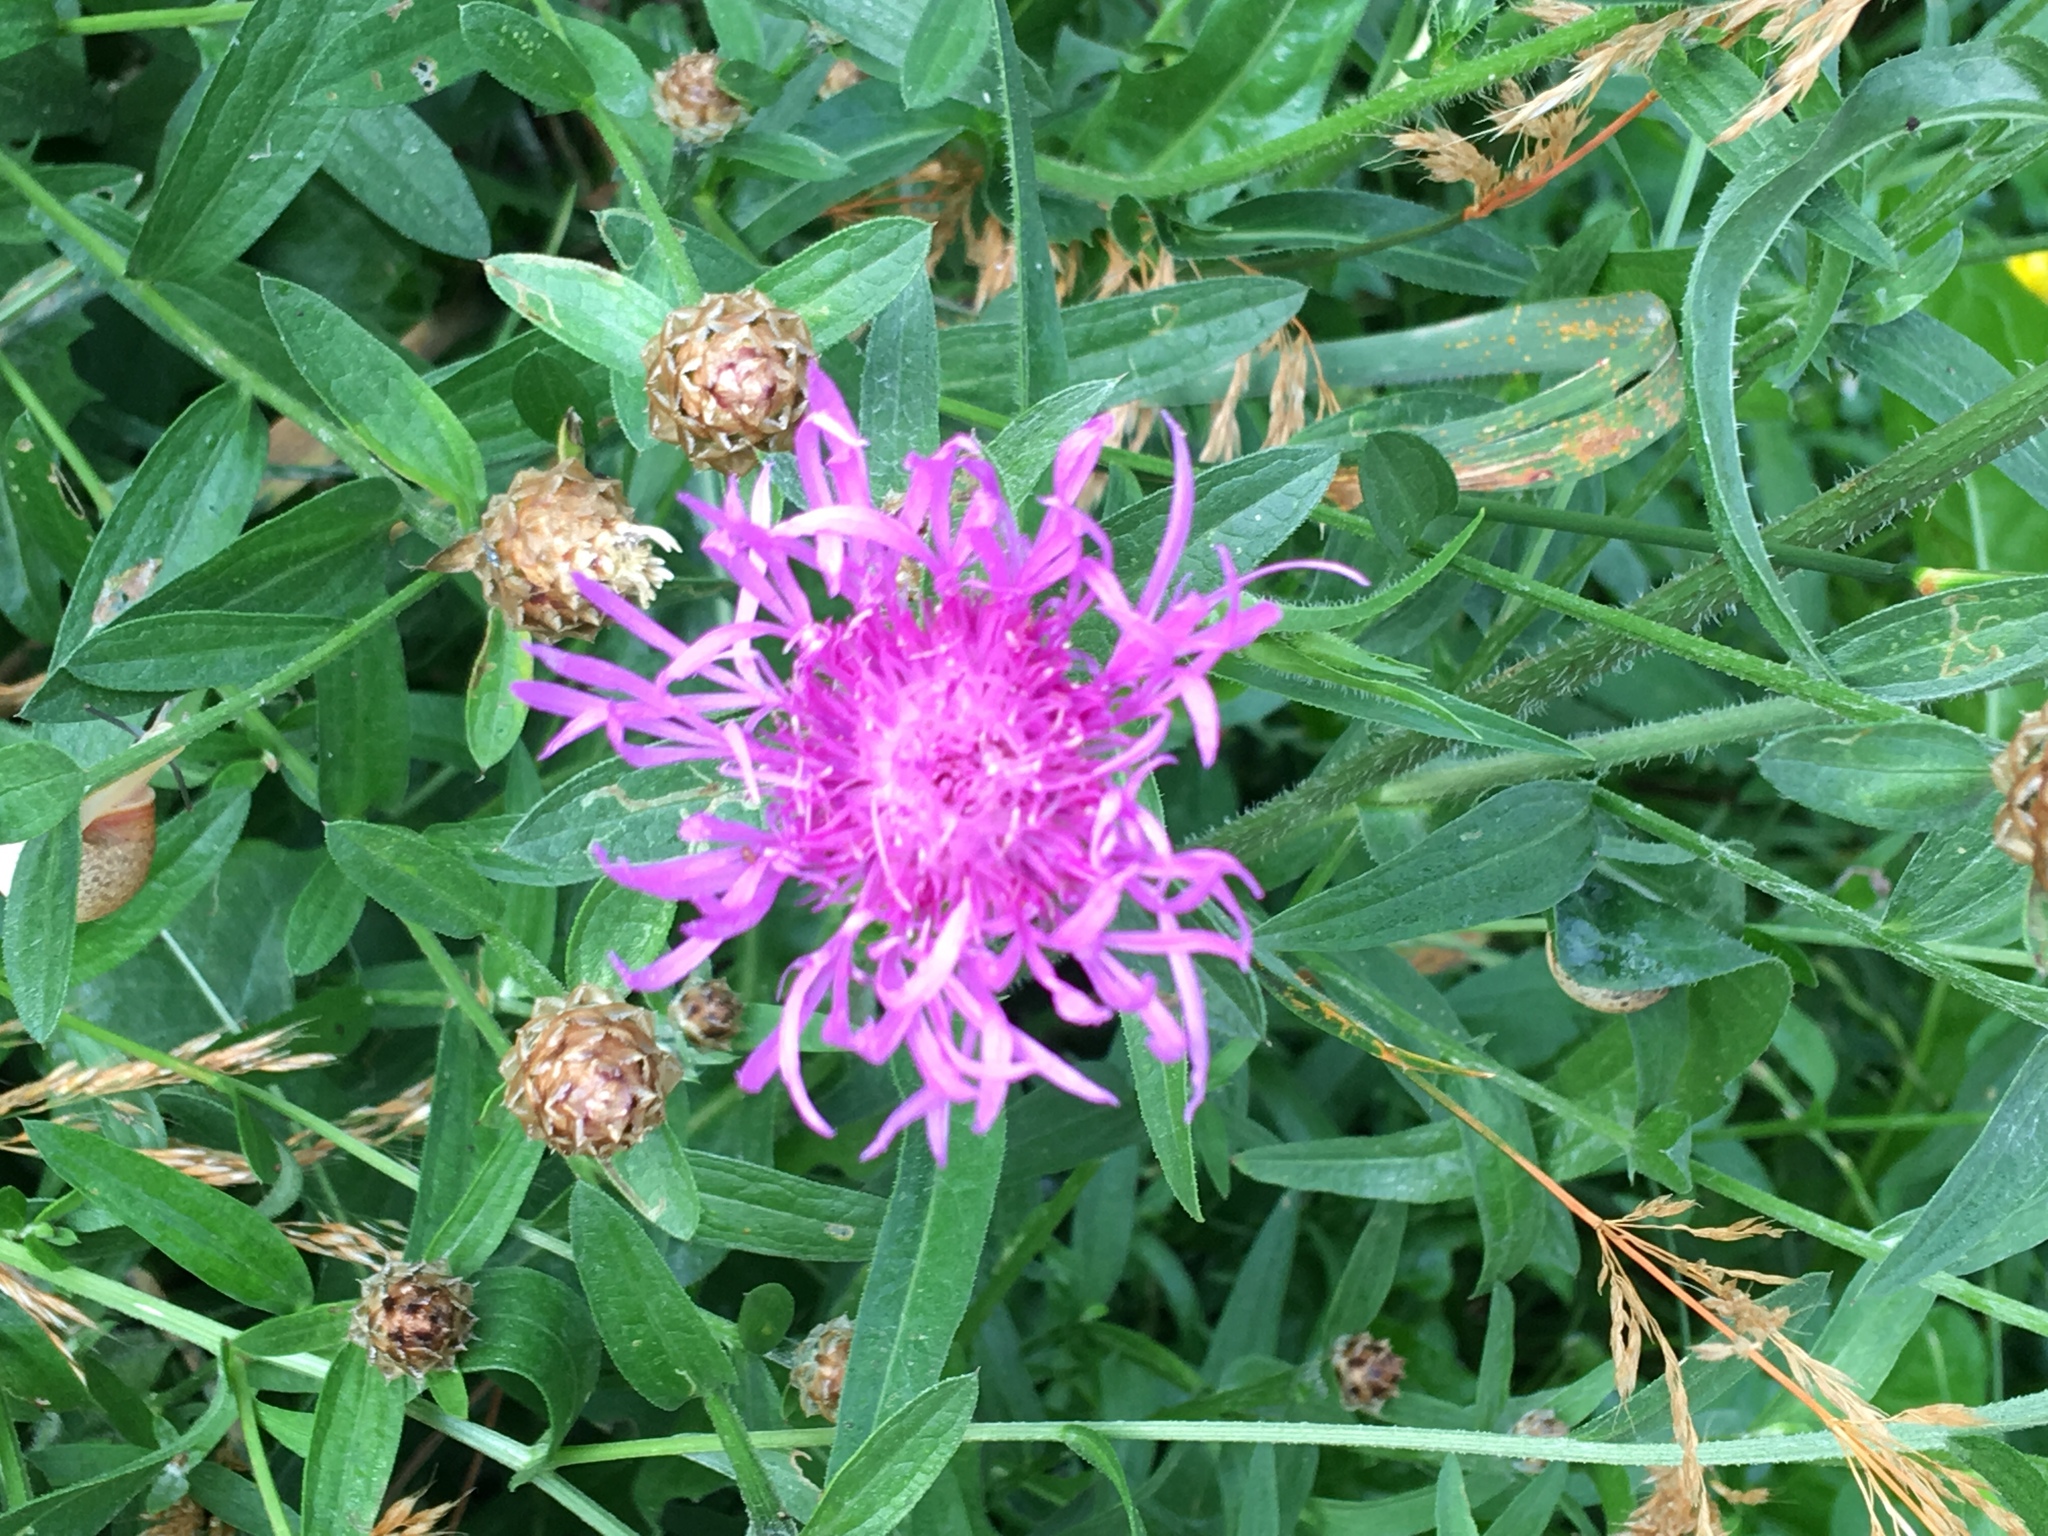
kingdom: Plantae
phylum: Tracheophyta
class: Magnoliopsida
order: Asterales
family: Asteraceae
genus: Centaurea
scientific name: Centaurea jacea
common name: Brown knapweed
